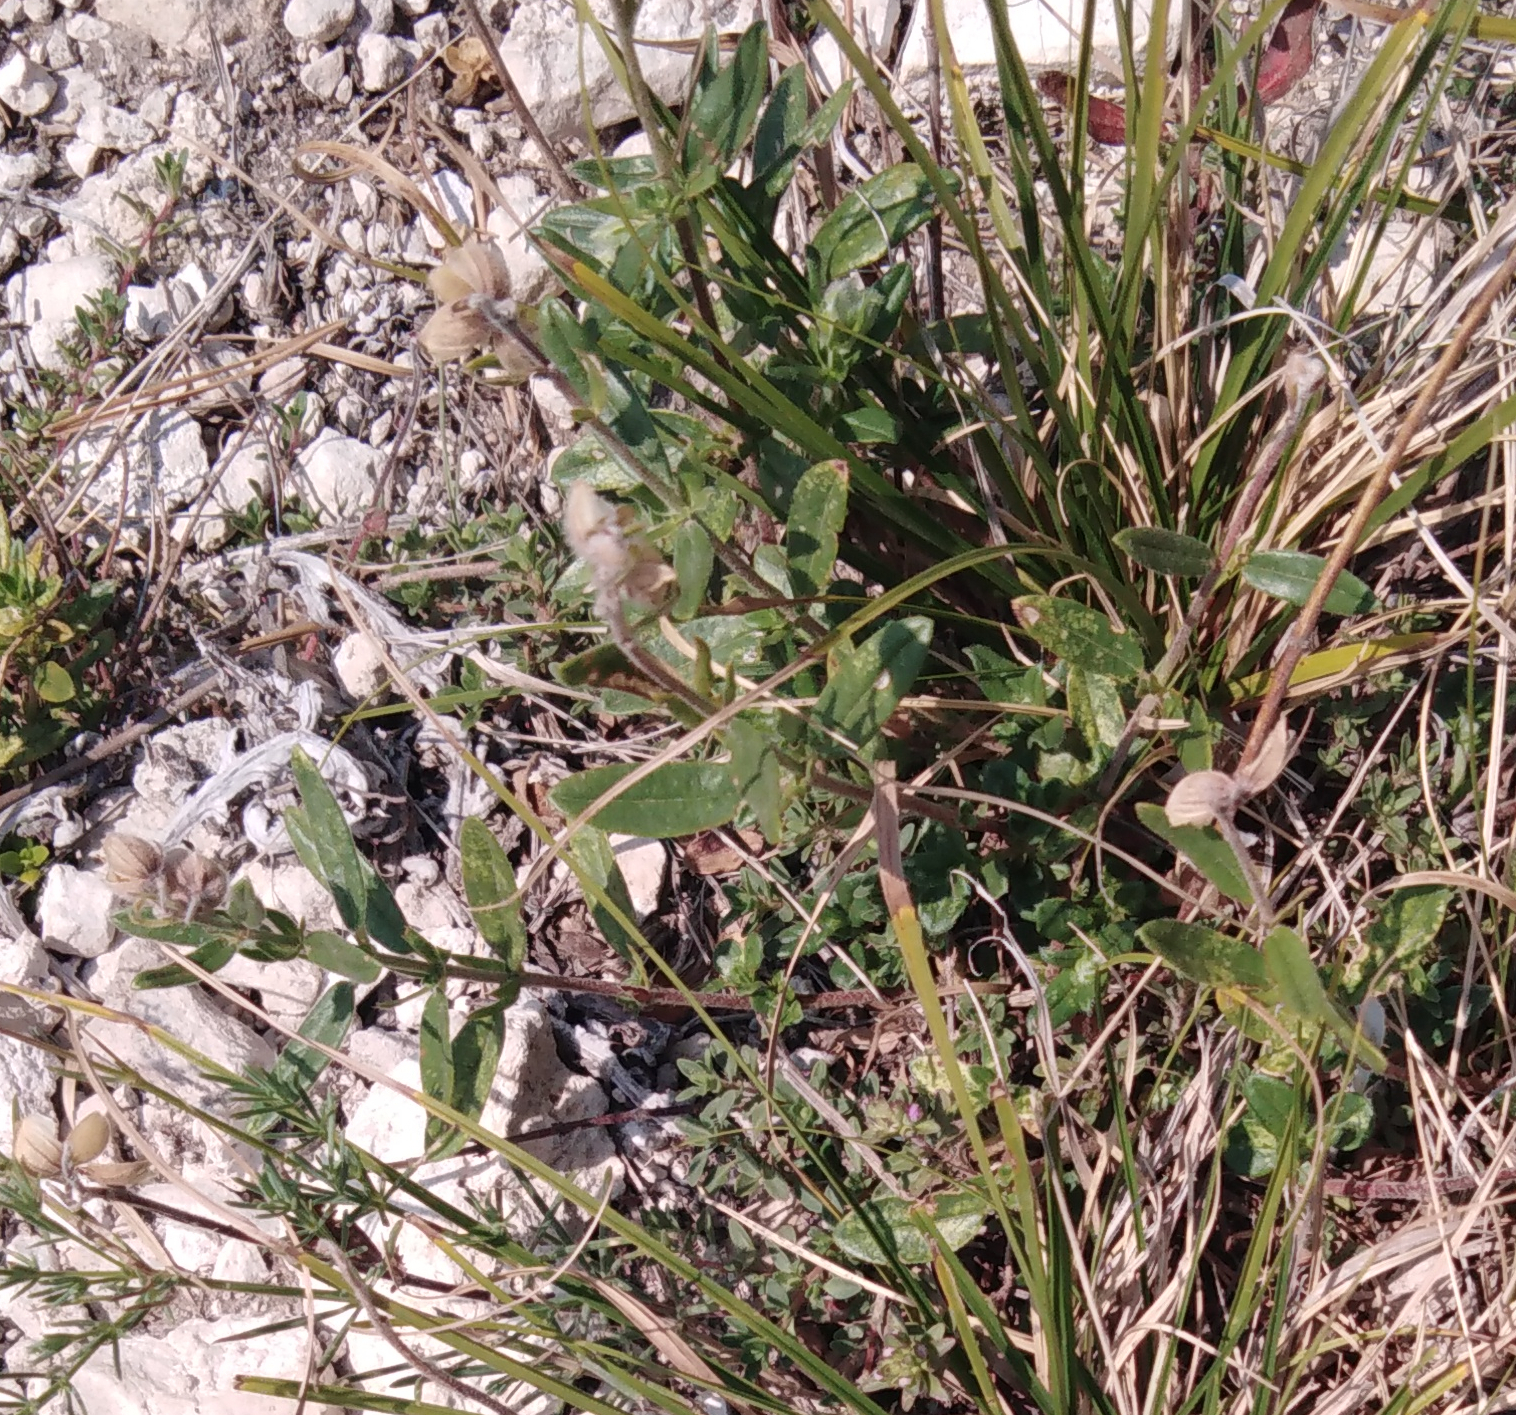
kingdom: Plantae
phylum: Tracheophyta
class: Magnoliopsida
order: Malvales
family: Cistaceae
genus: Helianthemum
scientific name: Helianthemum nummularium
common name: Common rock-rose
